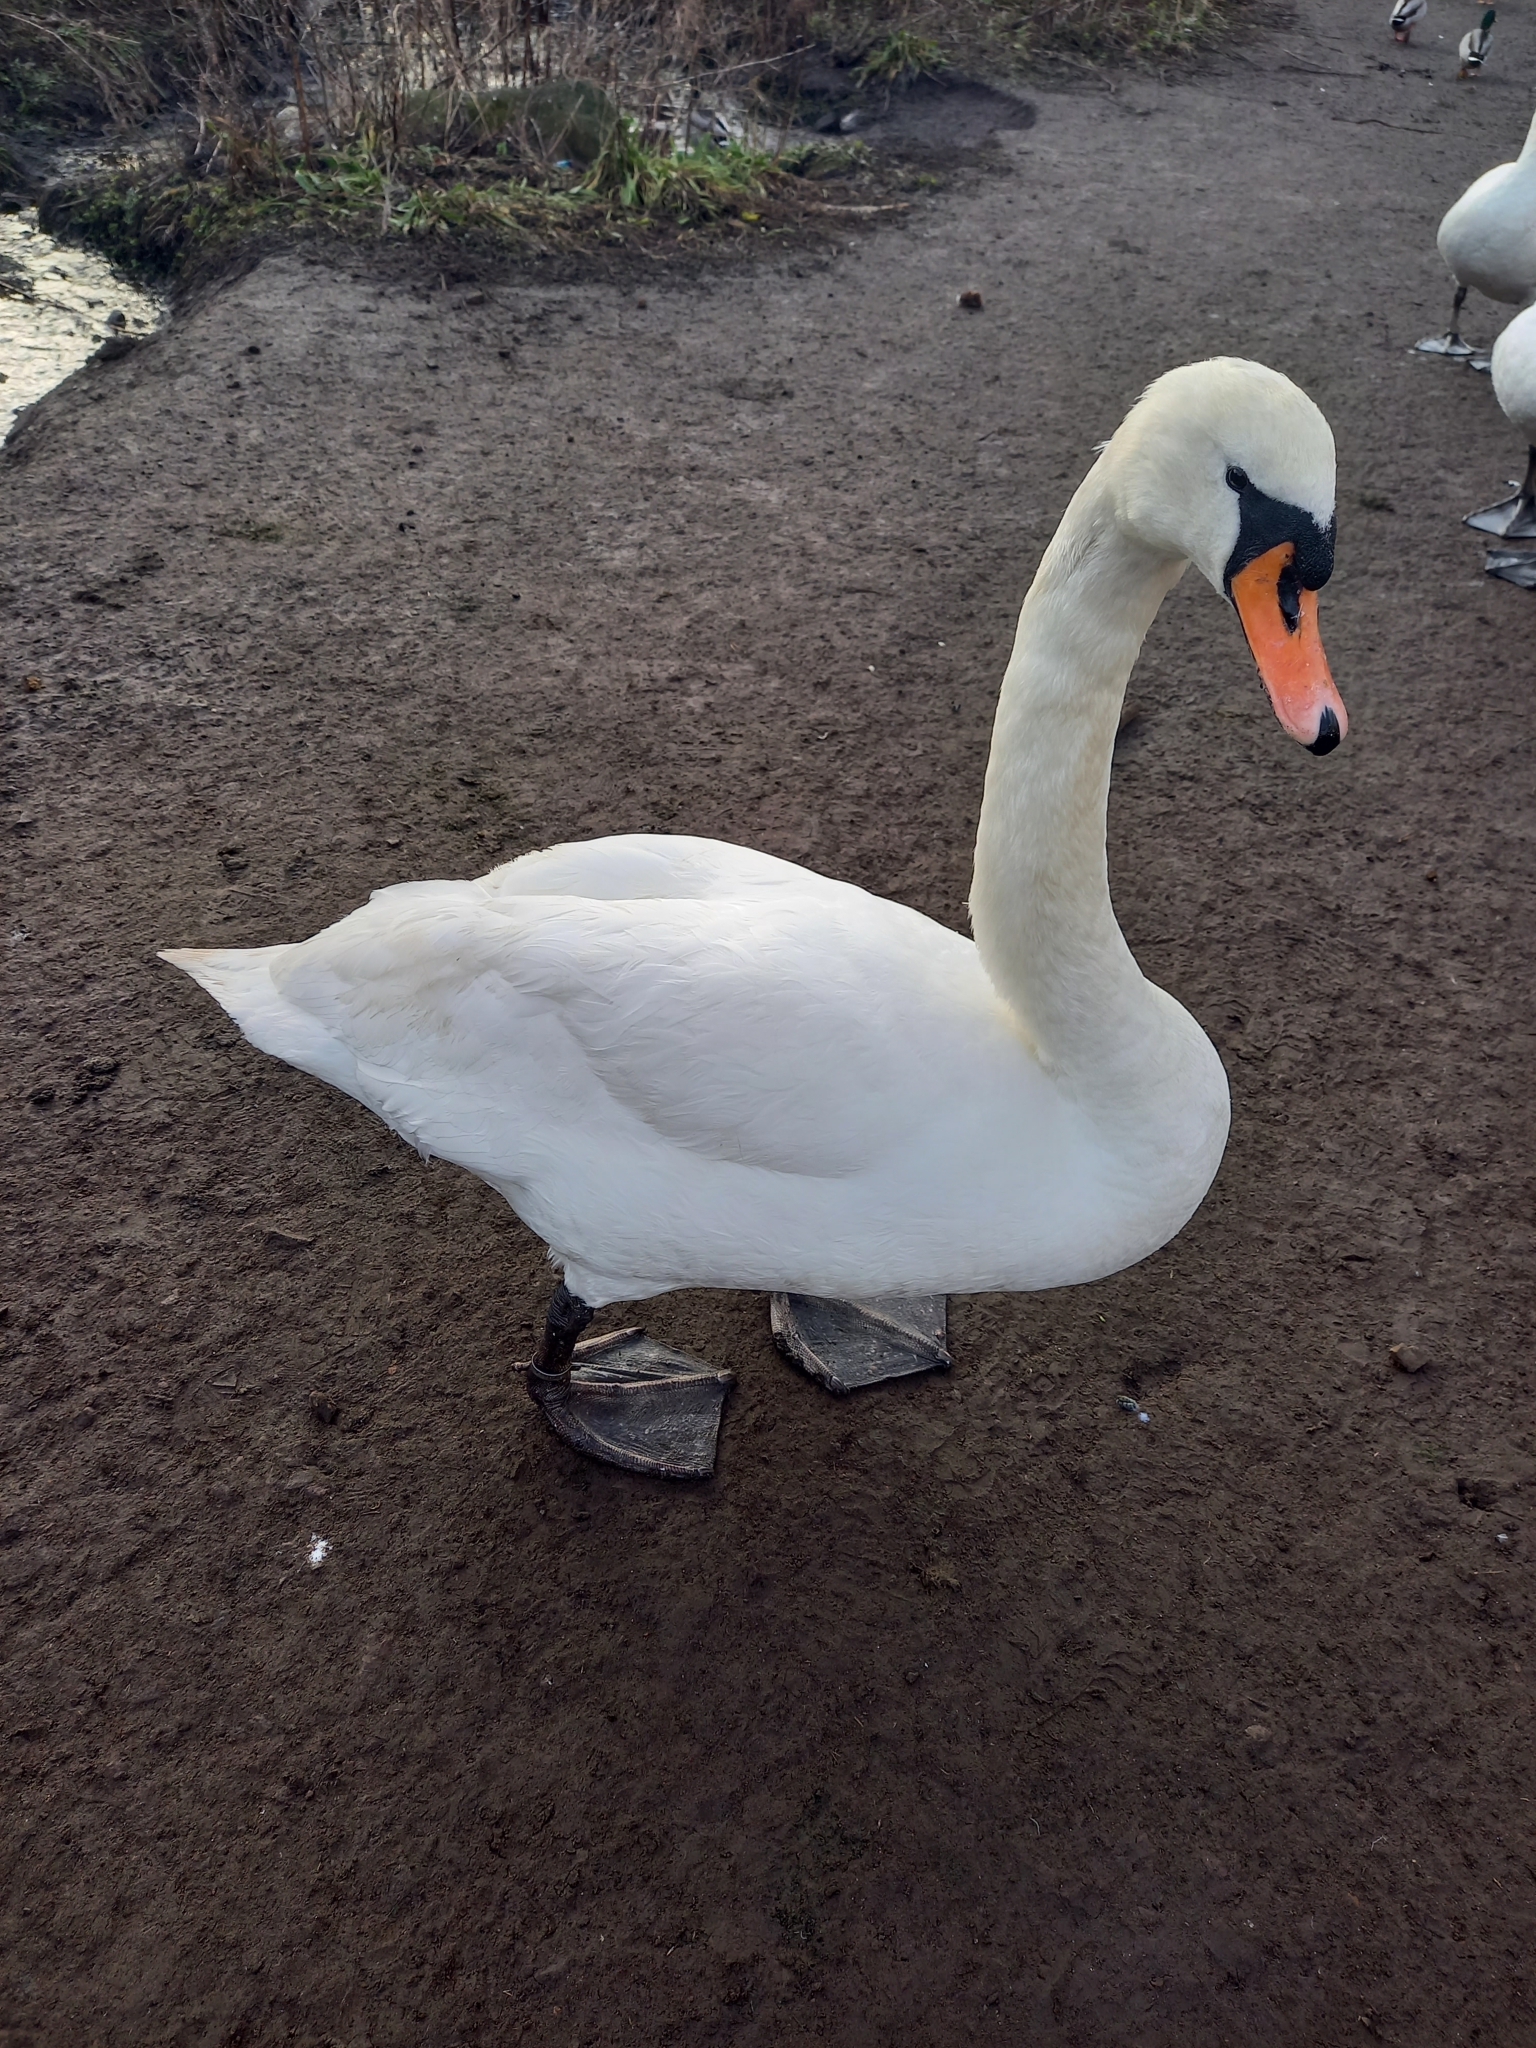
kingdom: Animalia
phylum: Chordata
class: Aves
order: Anseriformes
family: Anatidae
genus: Cygnus
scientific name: Cygnus olor
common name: Mute swan
